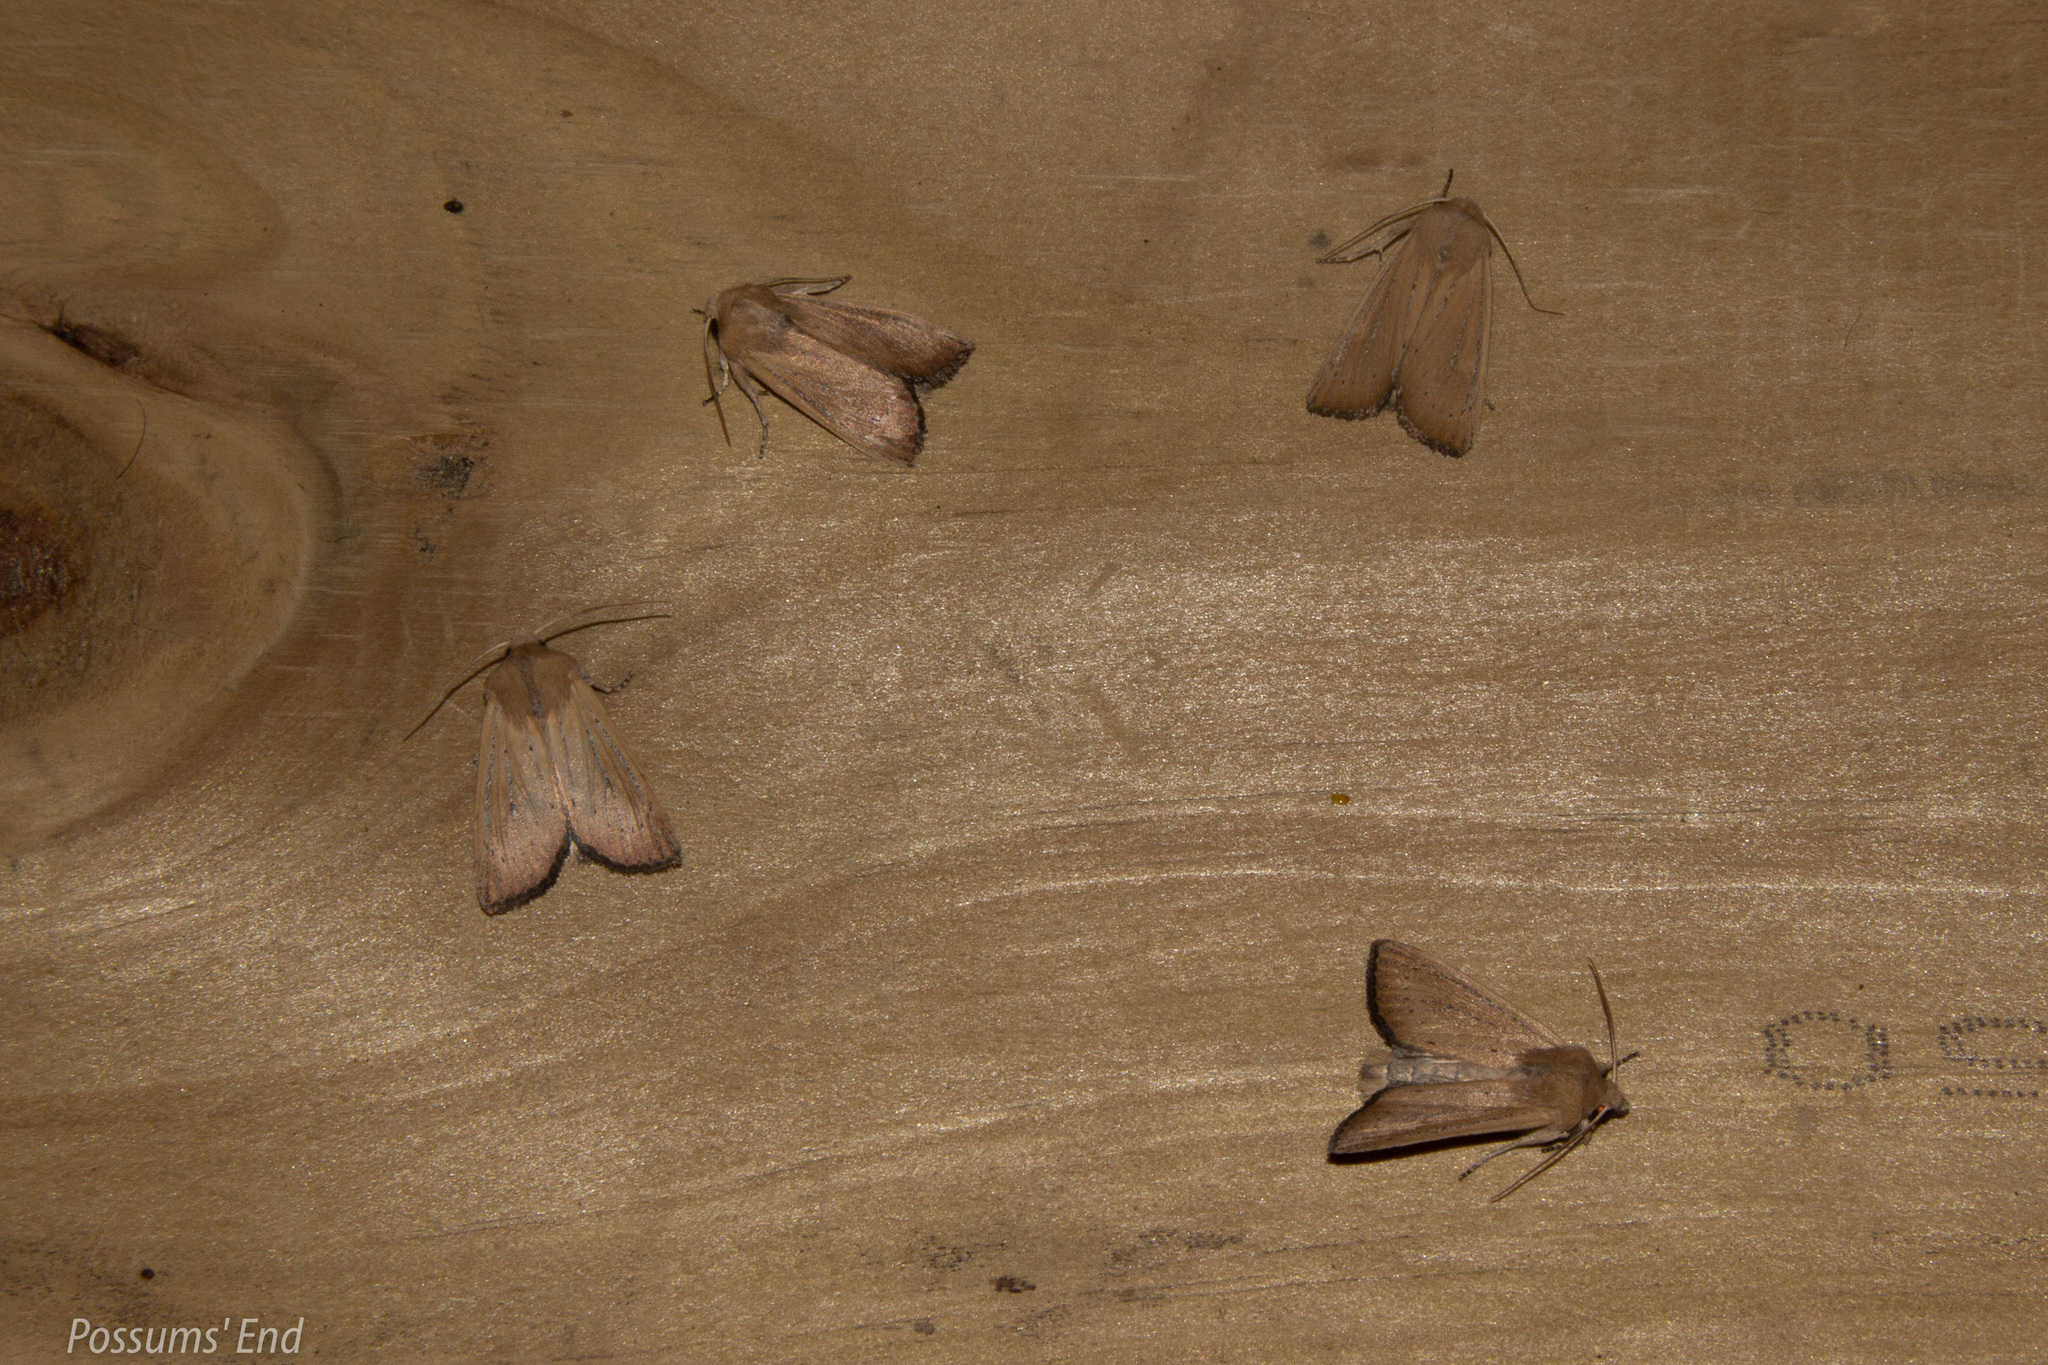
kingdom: Animalia
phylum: Arthropoda
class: Insecta
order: Lepidoptera
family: Noctuidae
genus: Ichneutica
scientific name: Ichneutica blenheimensis
